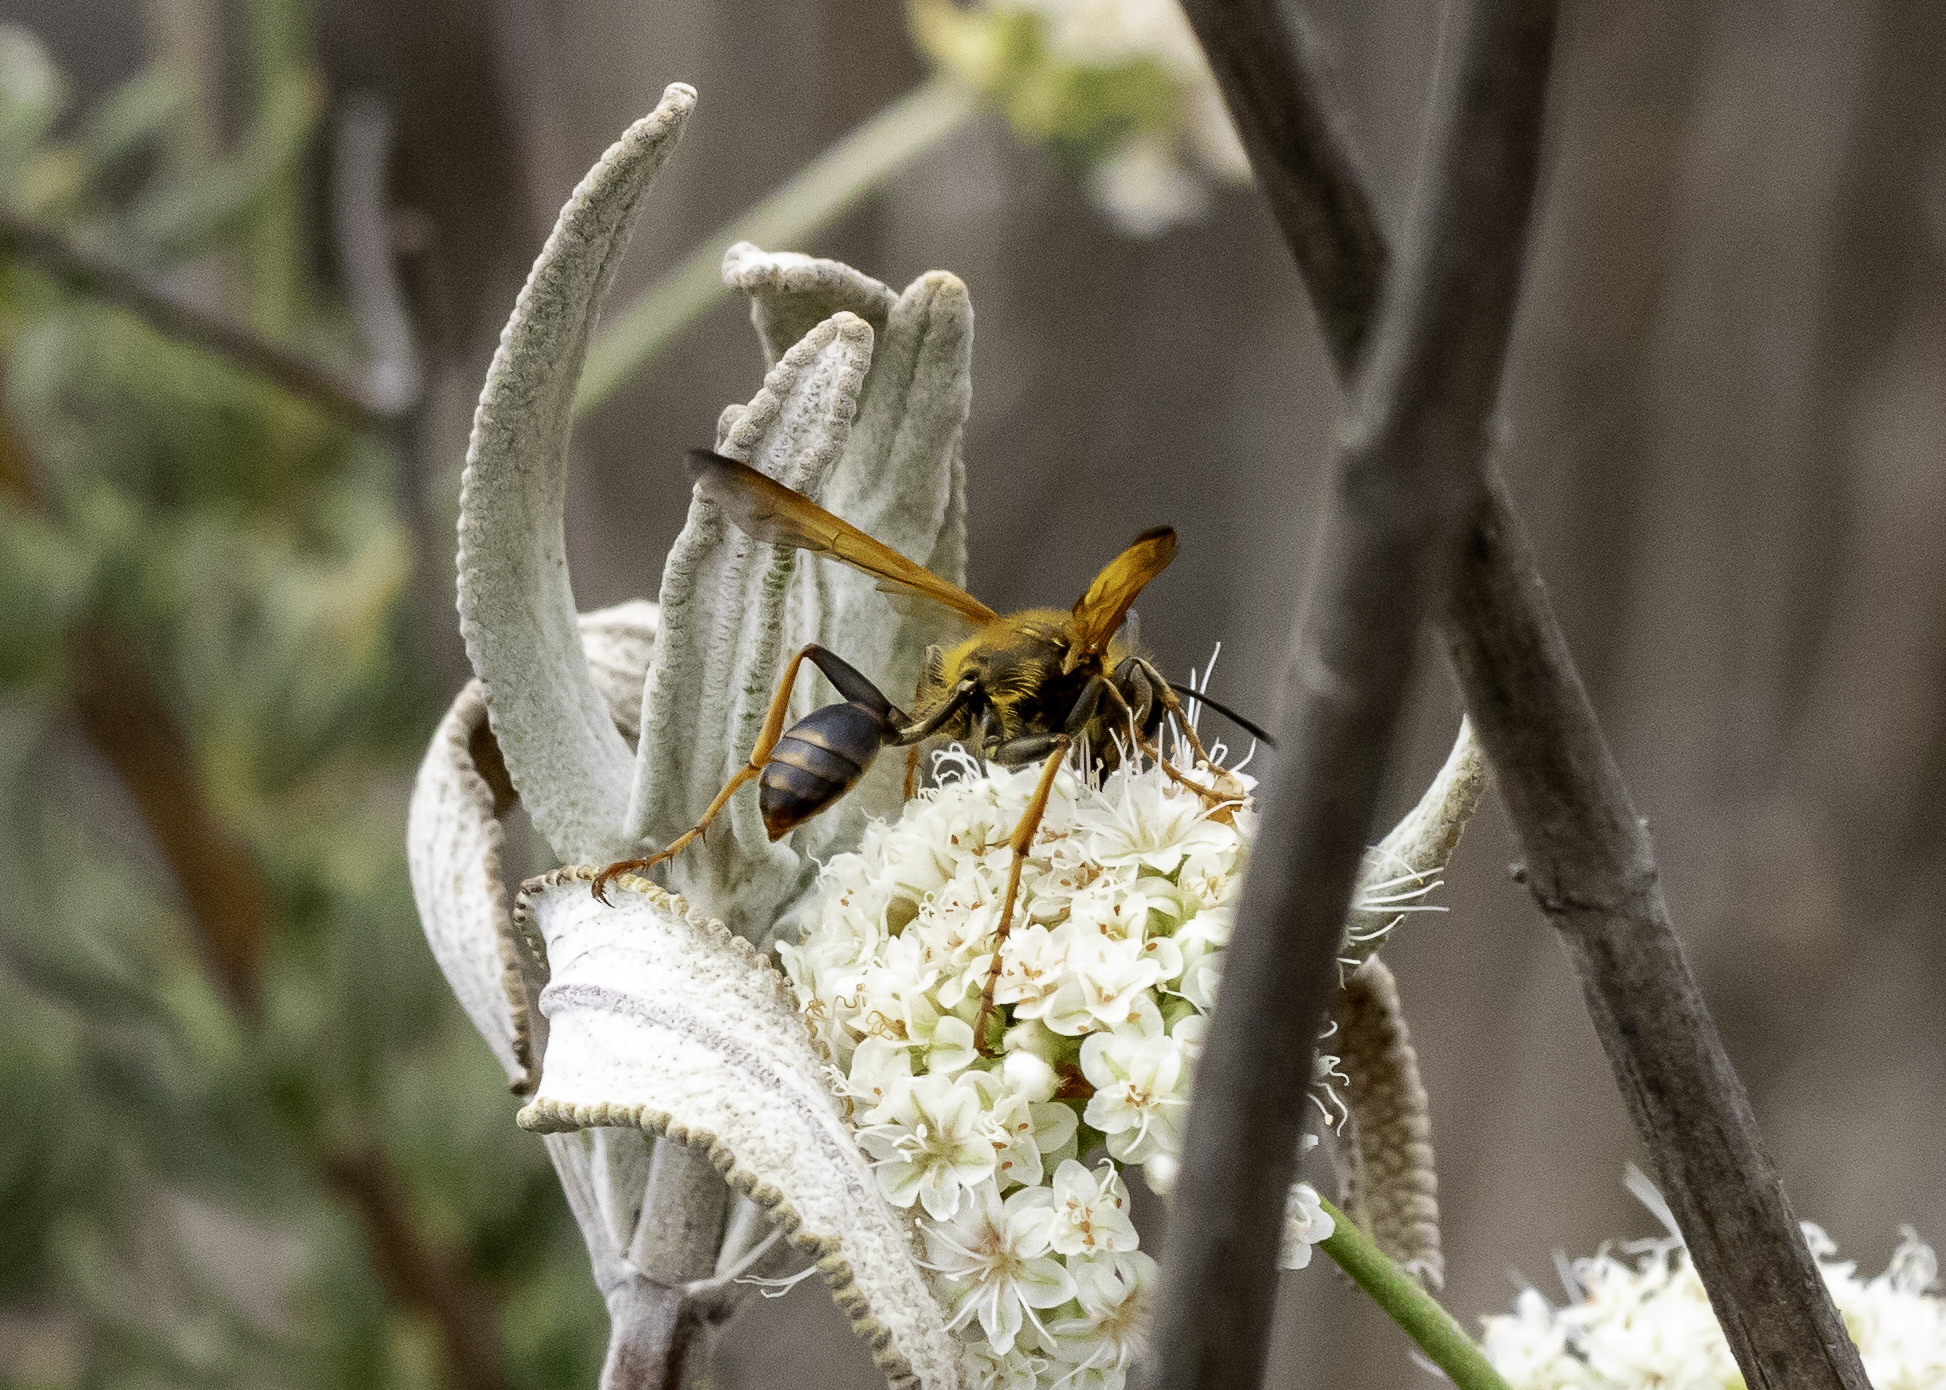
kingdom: Animalia
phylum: Arthropoda
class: Insecta
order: Hymenoptera
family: Sphecidae
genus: Isodontia
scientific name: Isodontia elegans
